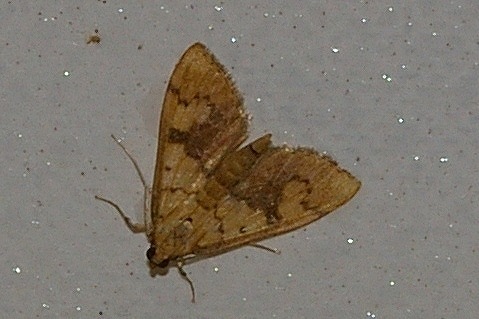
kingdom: Animalia
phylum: Arthropoda
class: Insecta
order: Lepidoptera
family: Crambidae
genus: Patania
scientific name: Patania
